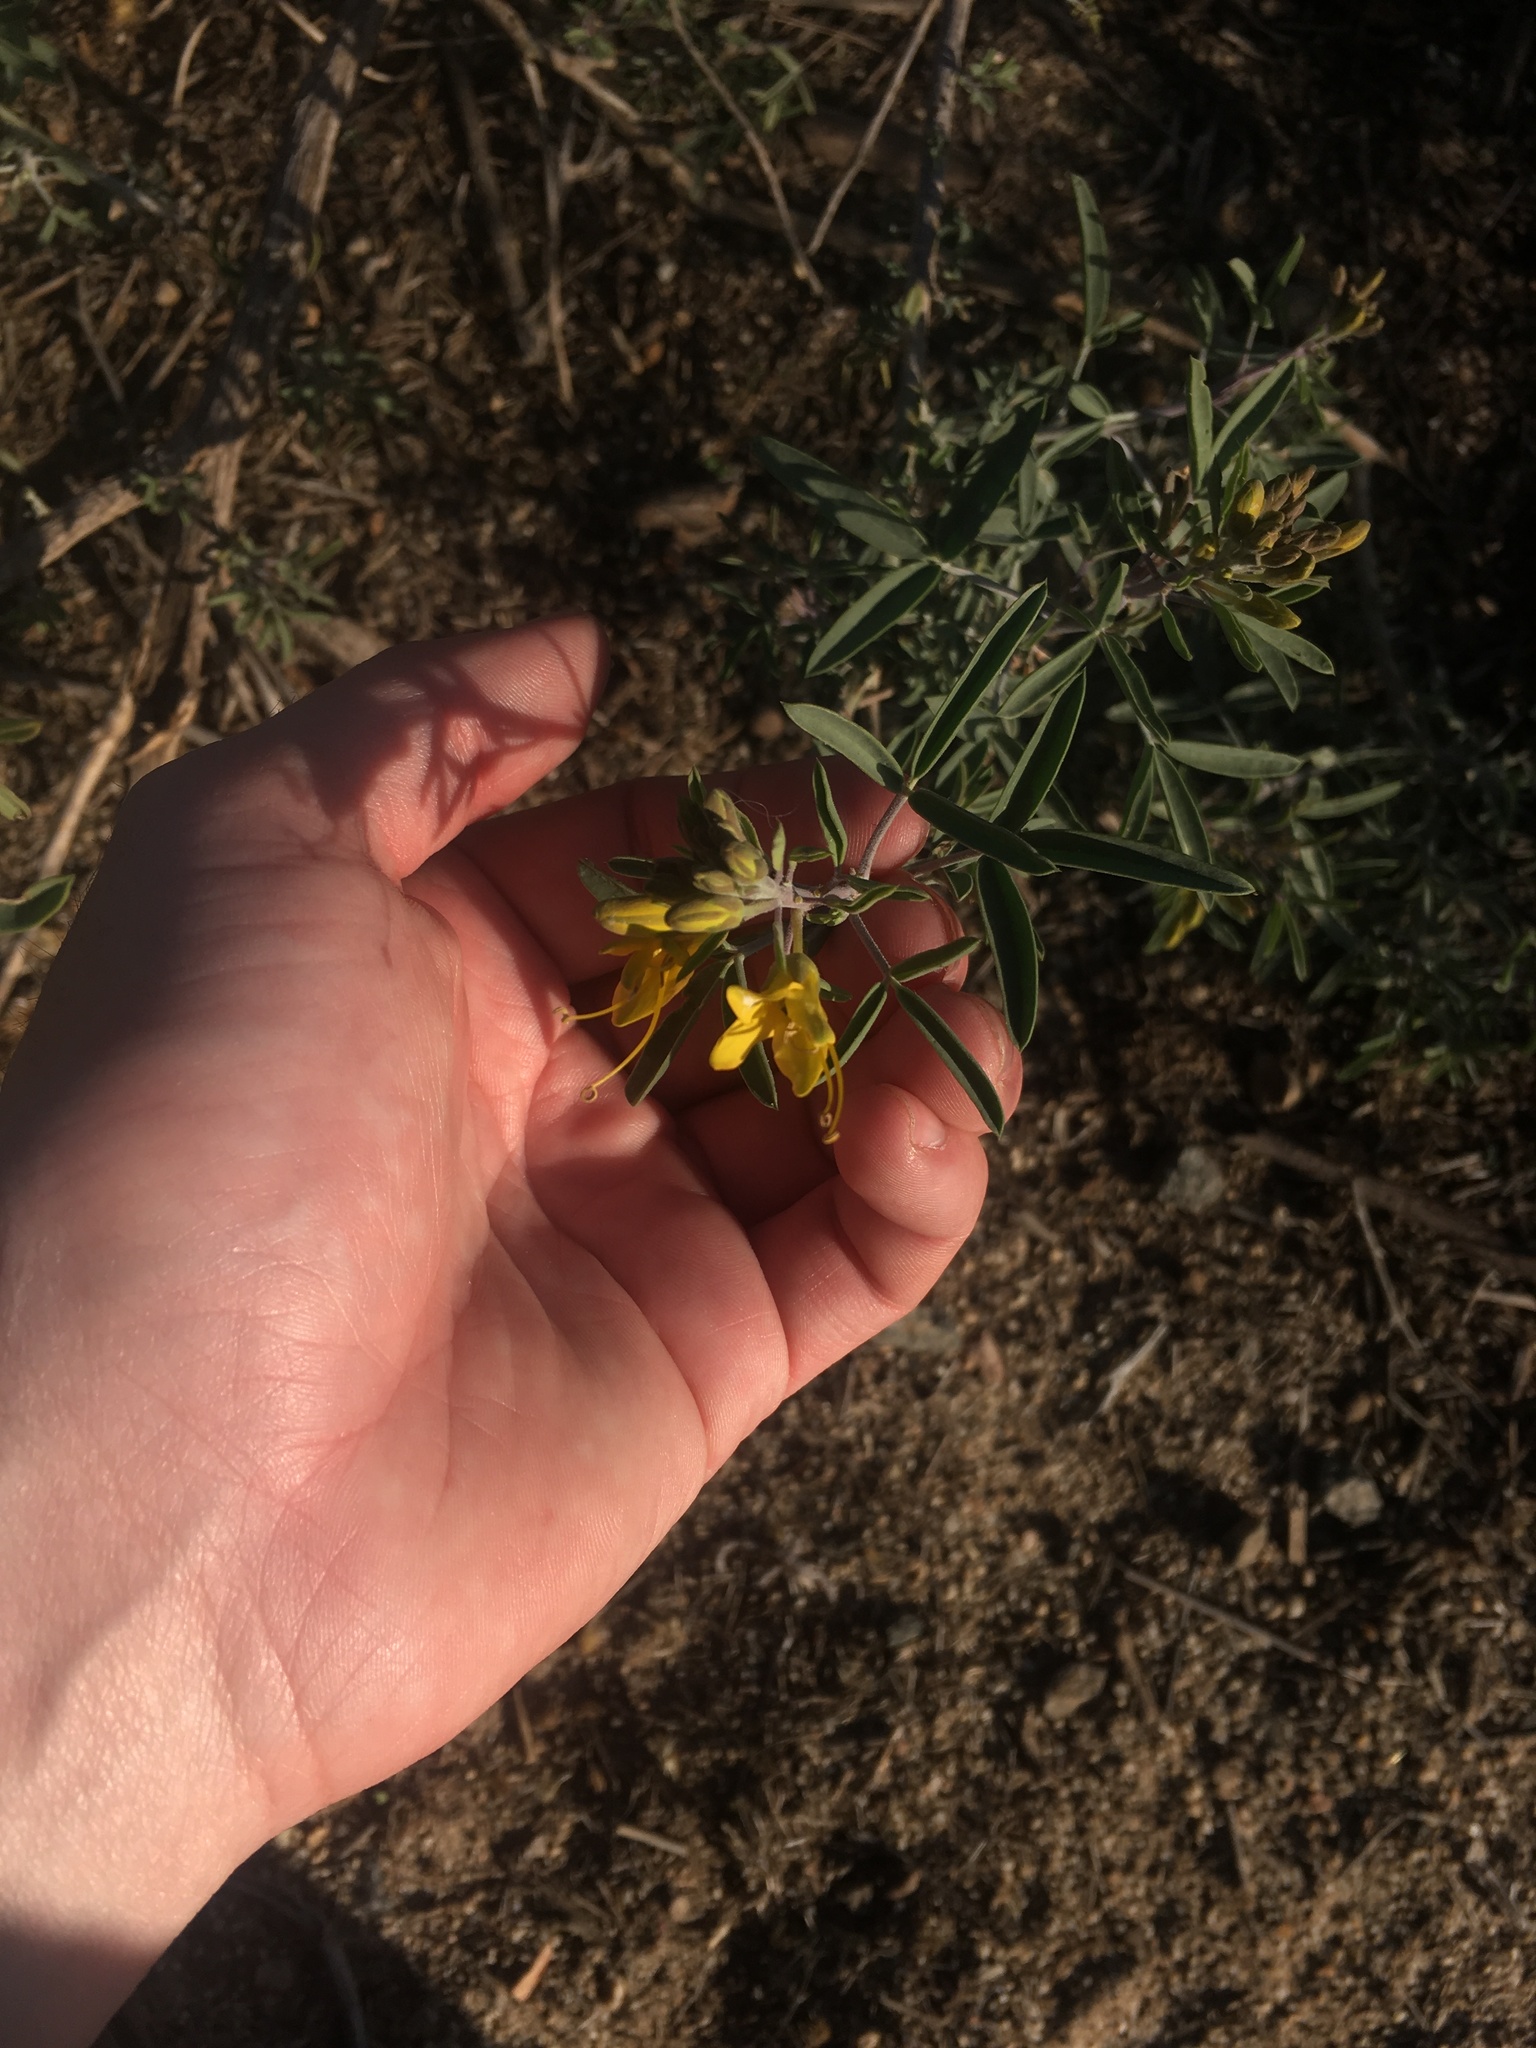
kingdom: Plantae
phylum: Tracheophyta
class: Magnoliopsida
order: Brassicales
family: Cleomaceae
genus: Cleomella
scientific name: Cleomella arborea
